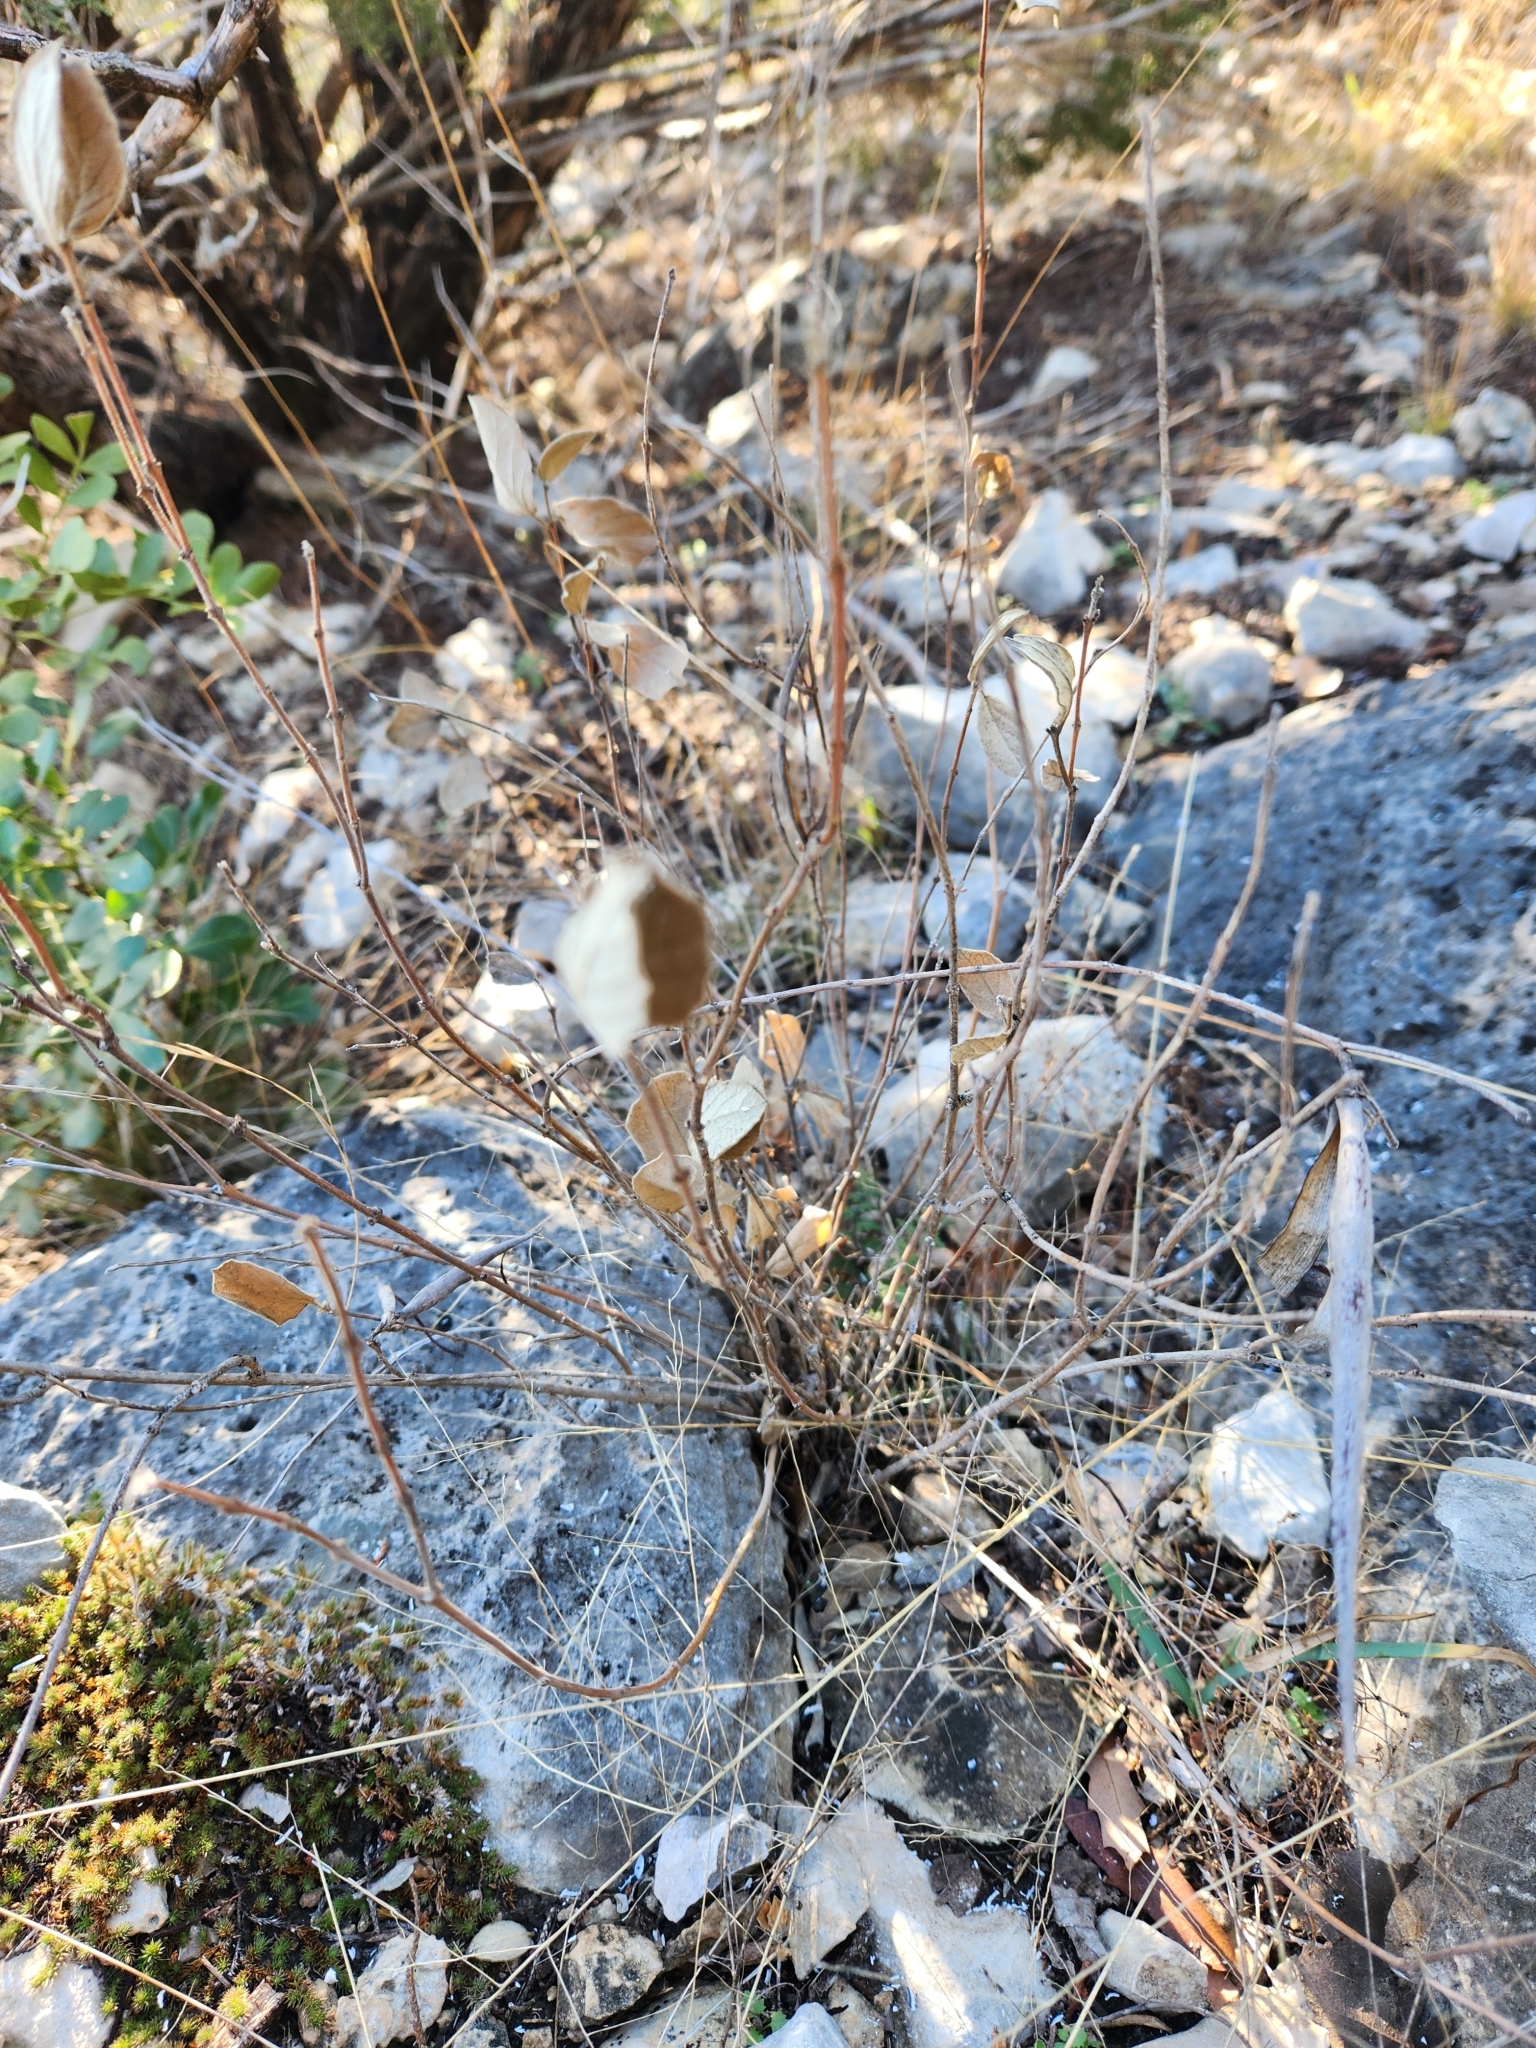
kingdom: Plantae
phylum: Tracheophyta
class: Magnoliopsida
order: Gentianales
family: Apocynaceae
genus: Mandevilla
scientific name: Mandevilla macrosiphon
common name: Plateau rocktrumpet
